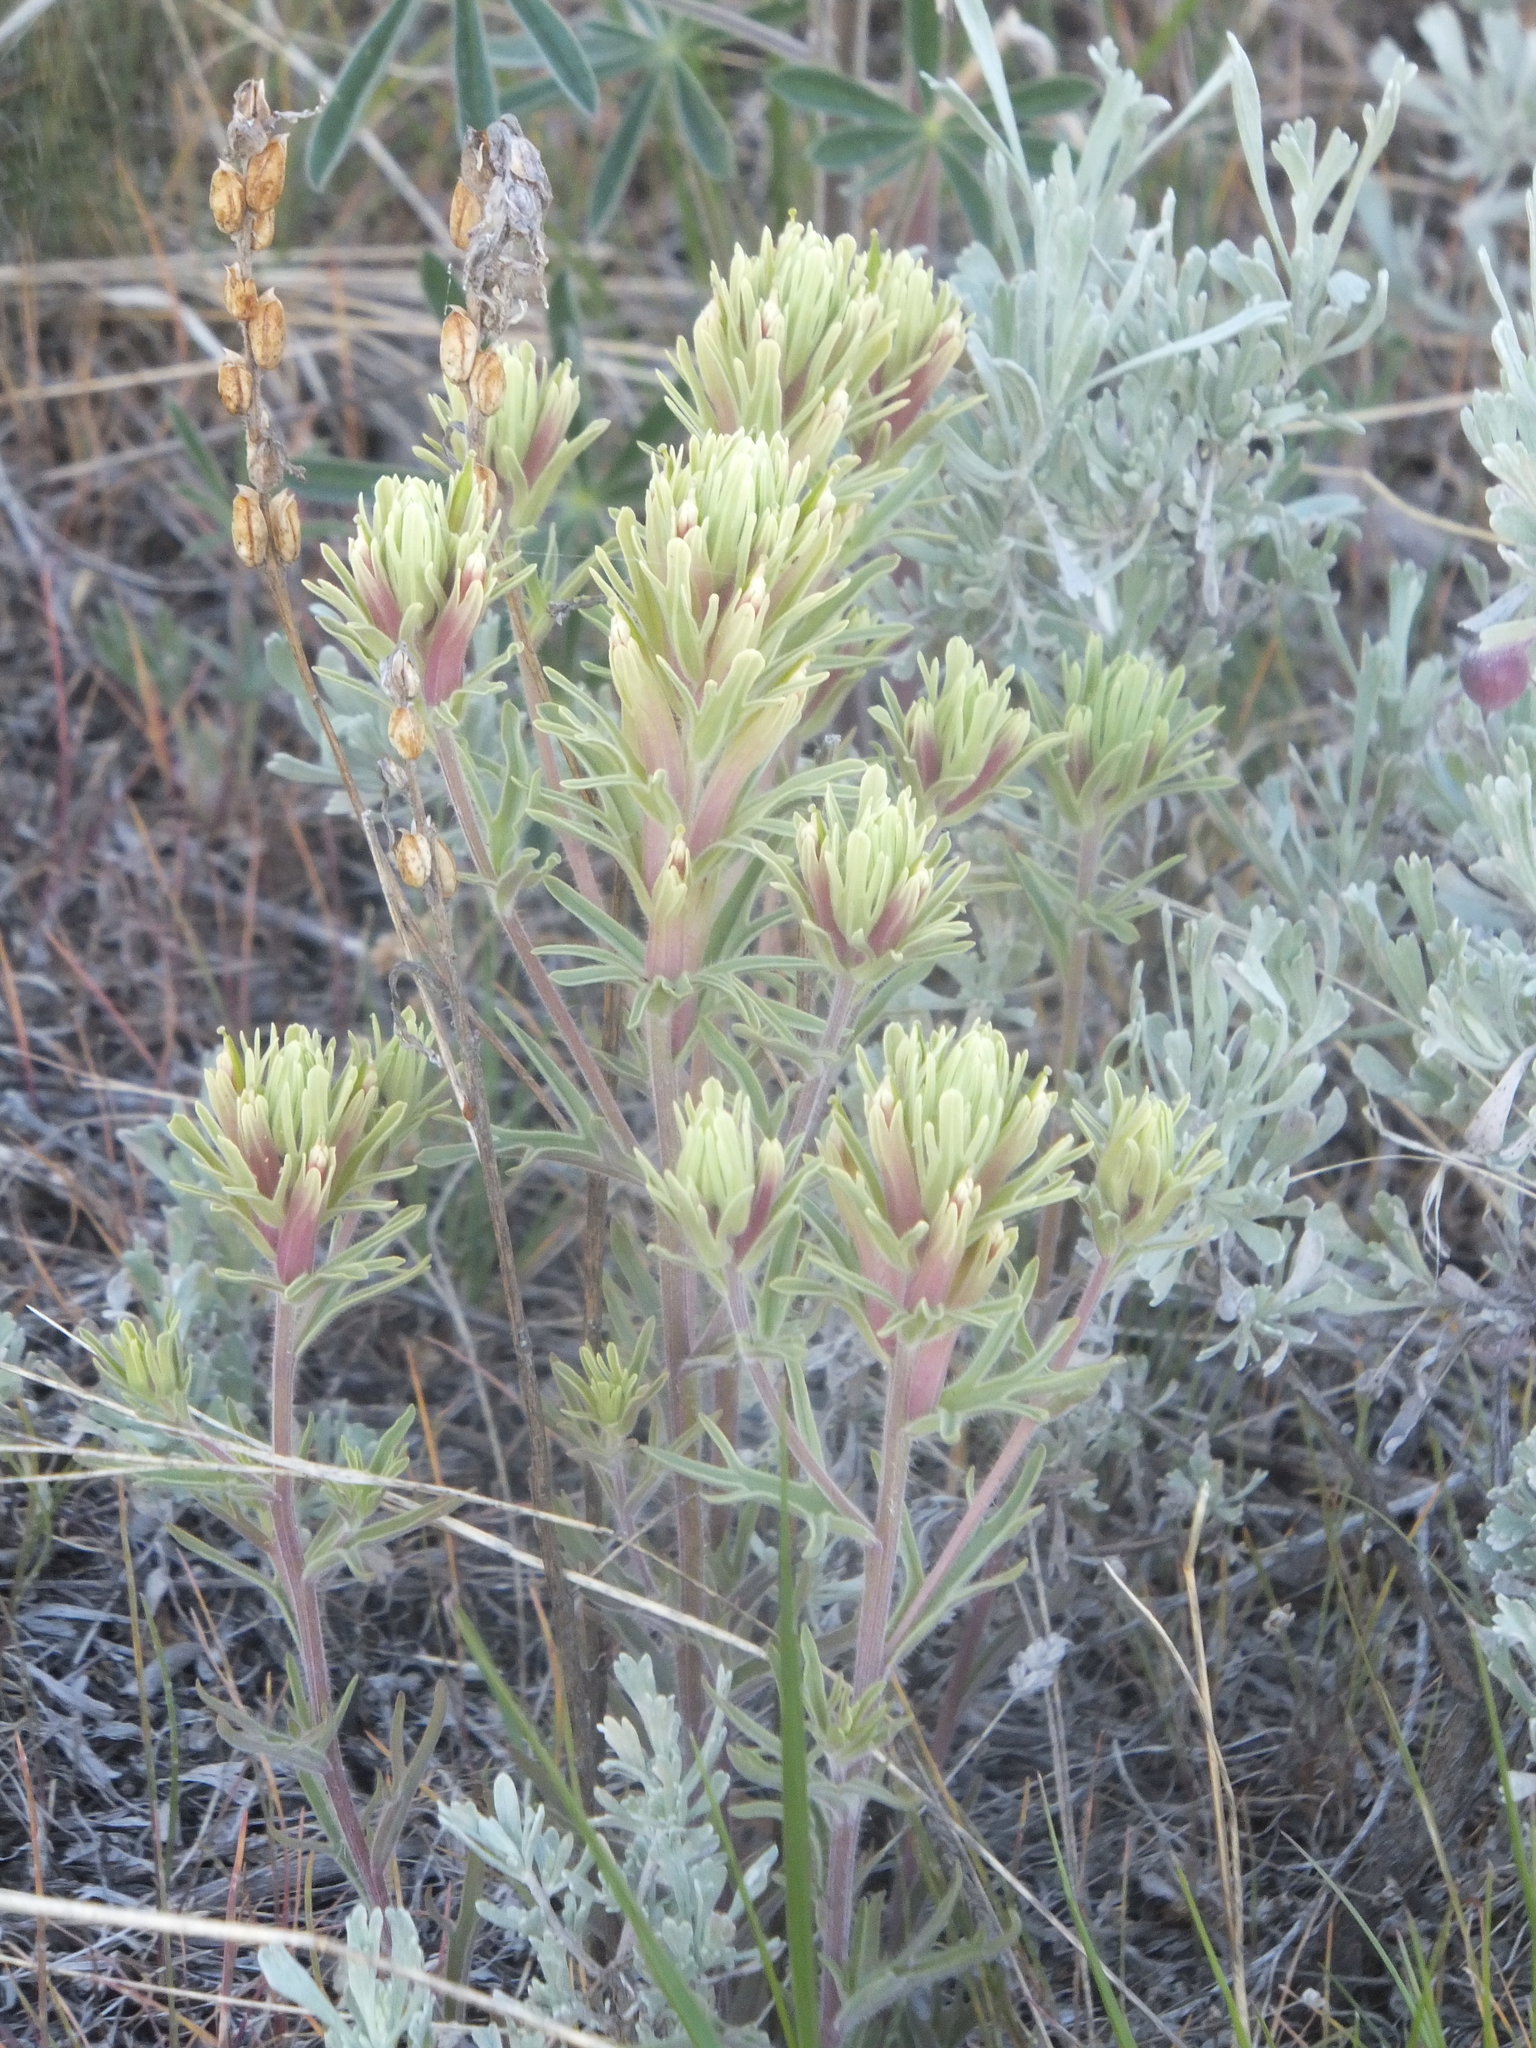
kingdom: Plantae
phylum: Tracheophyta
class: Magnoliopsida
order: Lamiales
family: Orobanchaceae
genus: Castilleja
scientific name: Castilleja thompsonii
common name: Thompson's paintbrush
